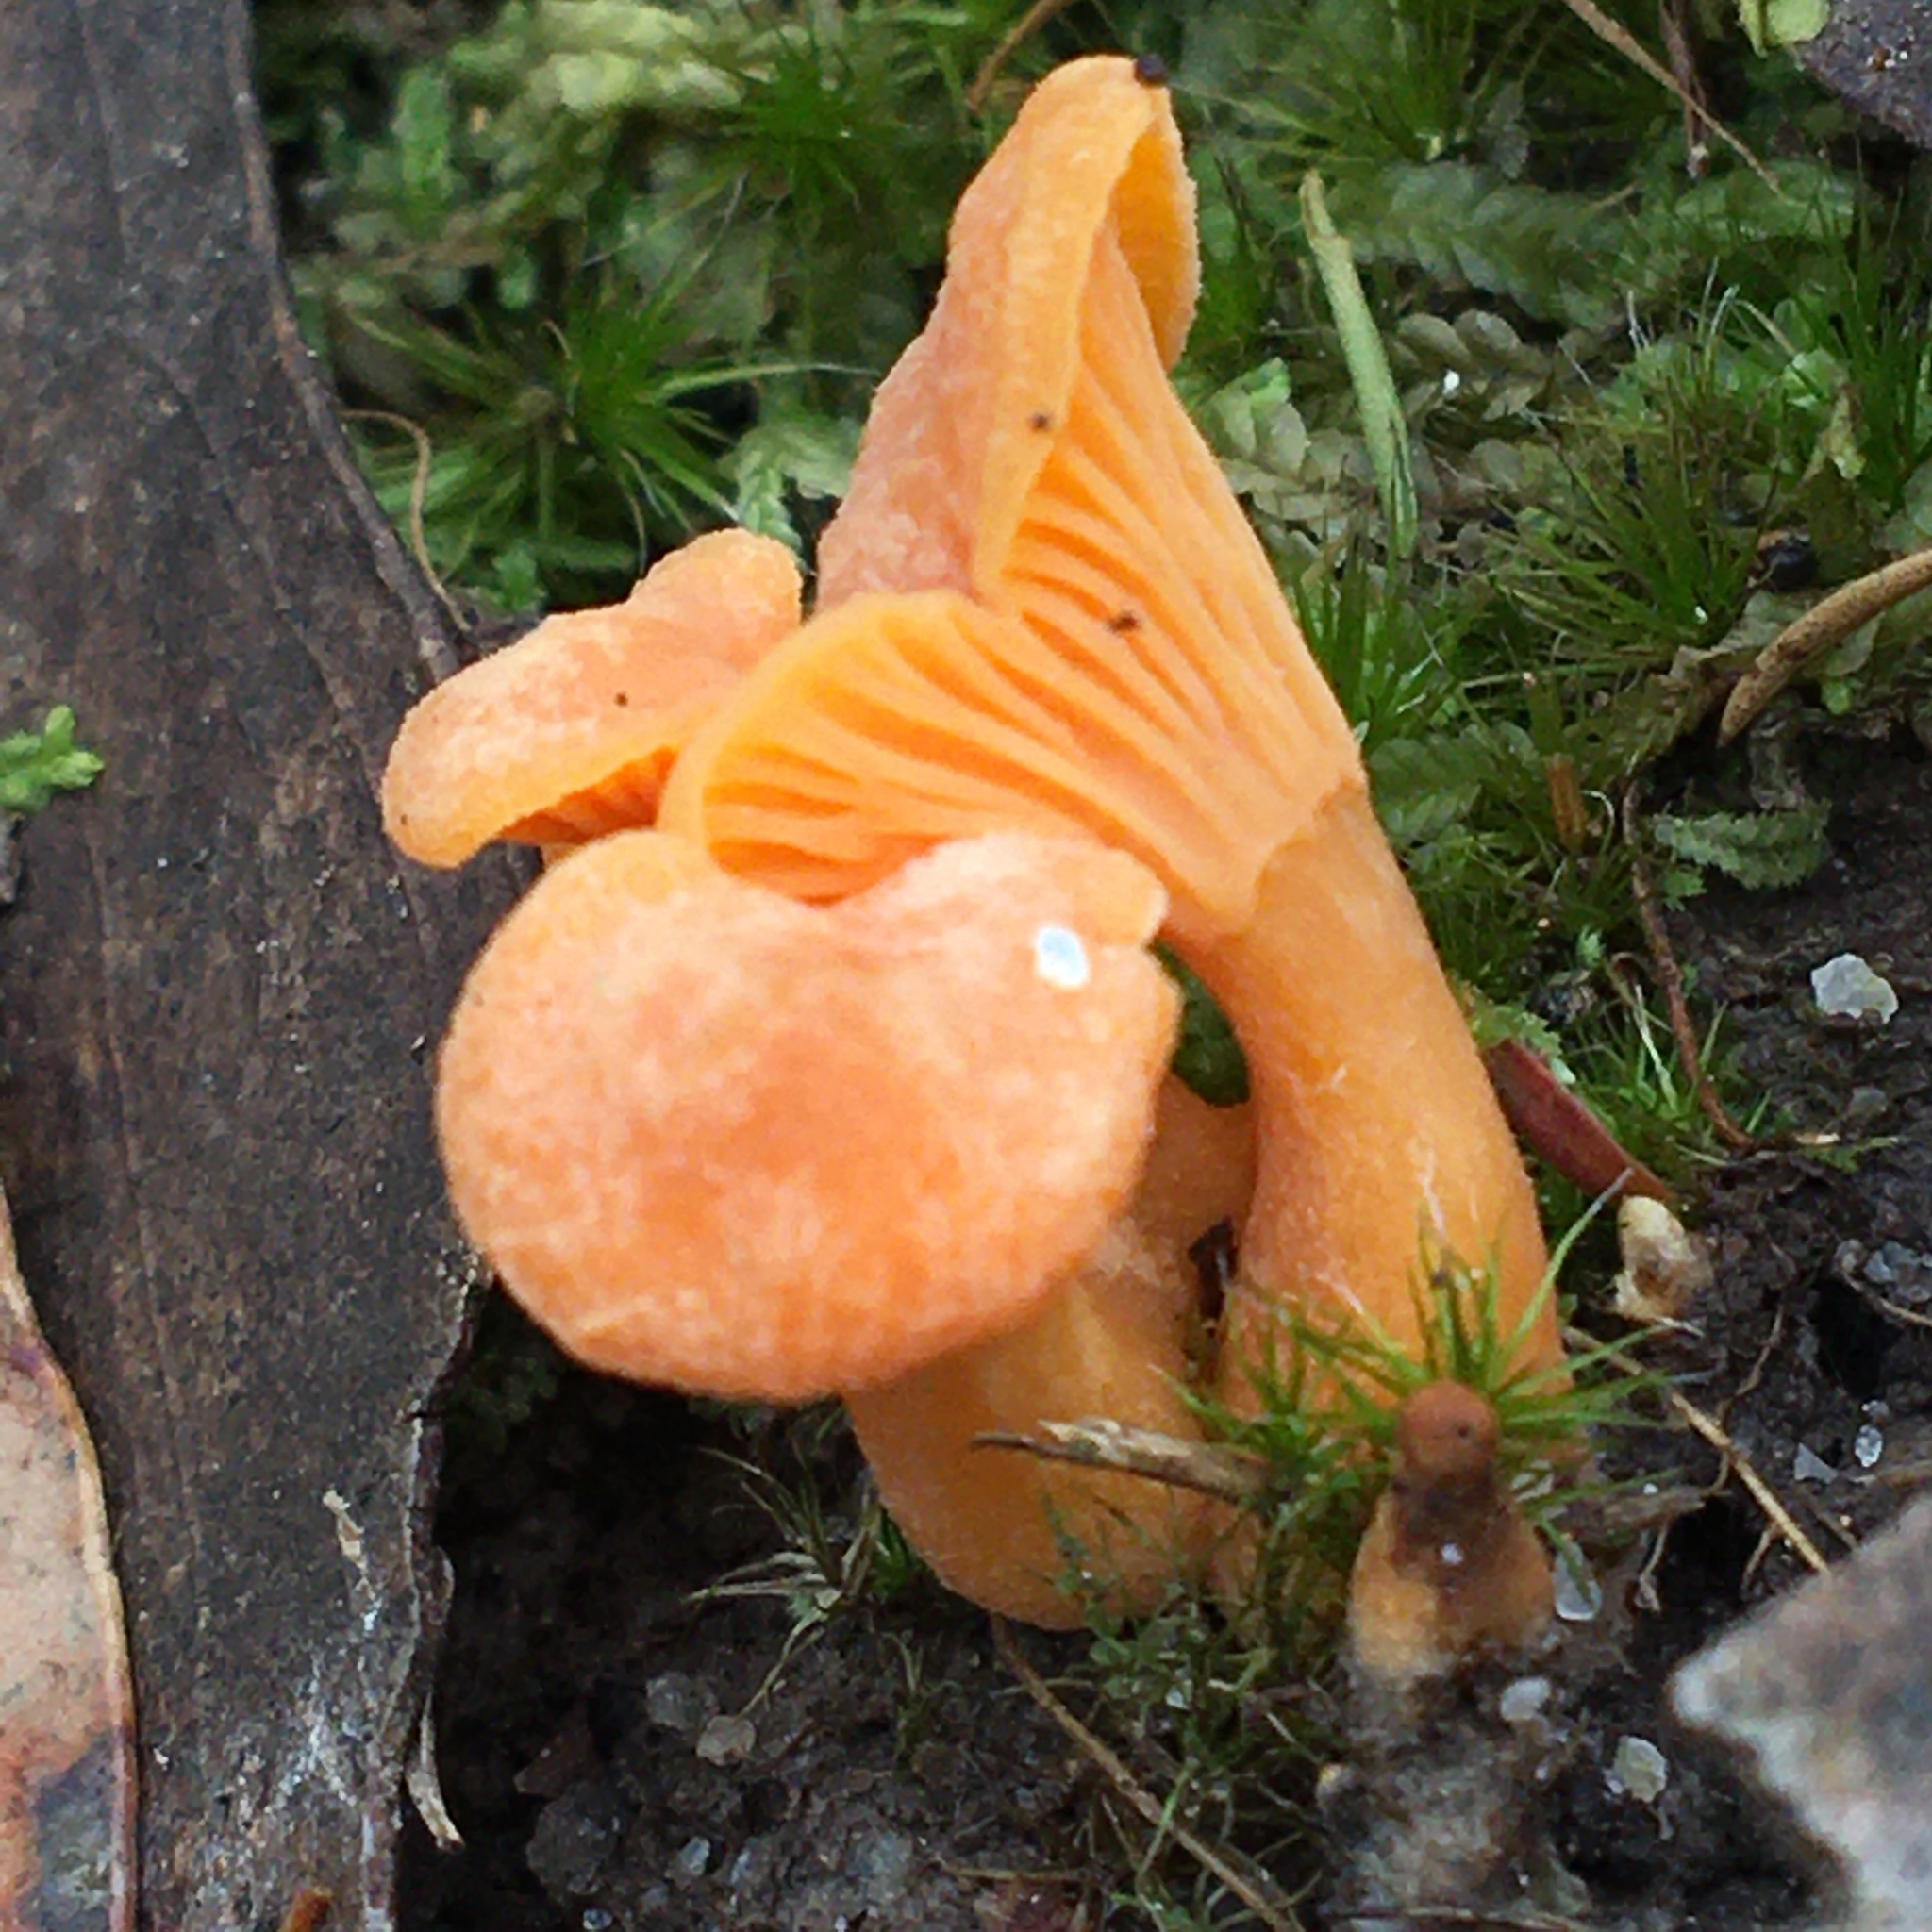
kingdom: Fungi
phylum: Basidiomycota
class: Agaricomycetes
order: Cantharellales
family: Hydnaceae
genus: Cantharellus
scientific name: Cantharellus
